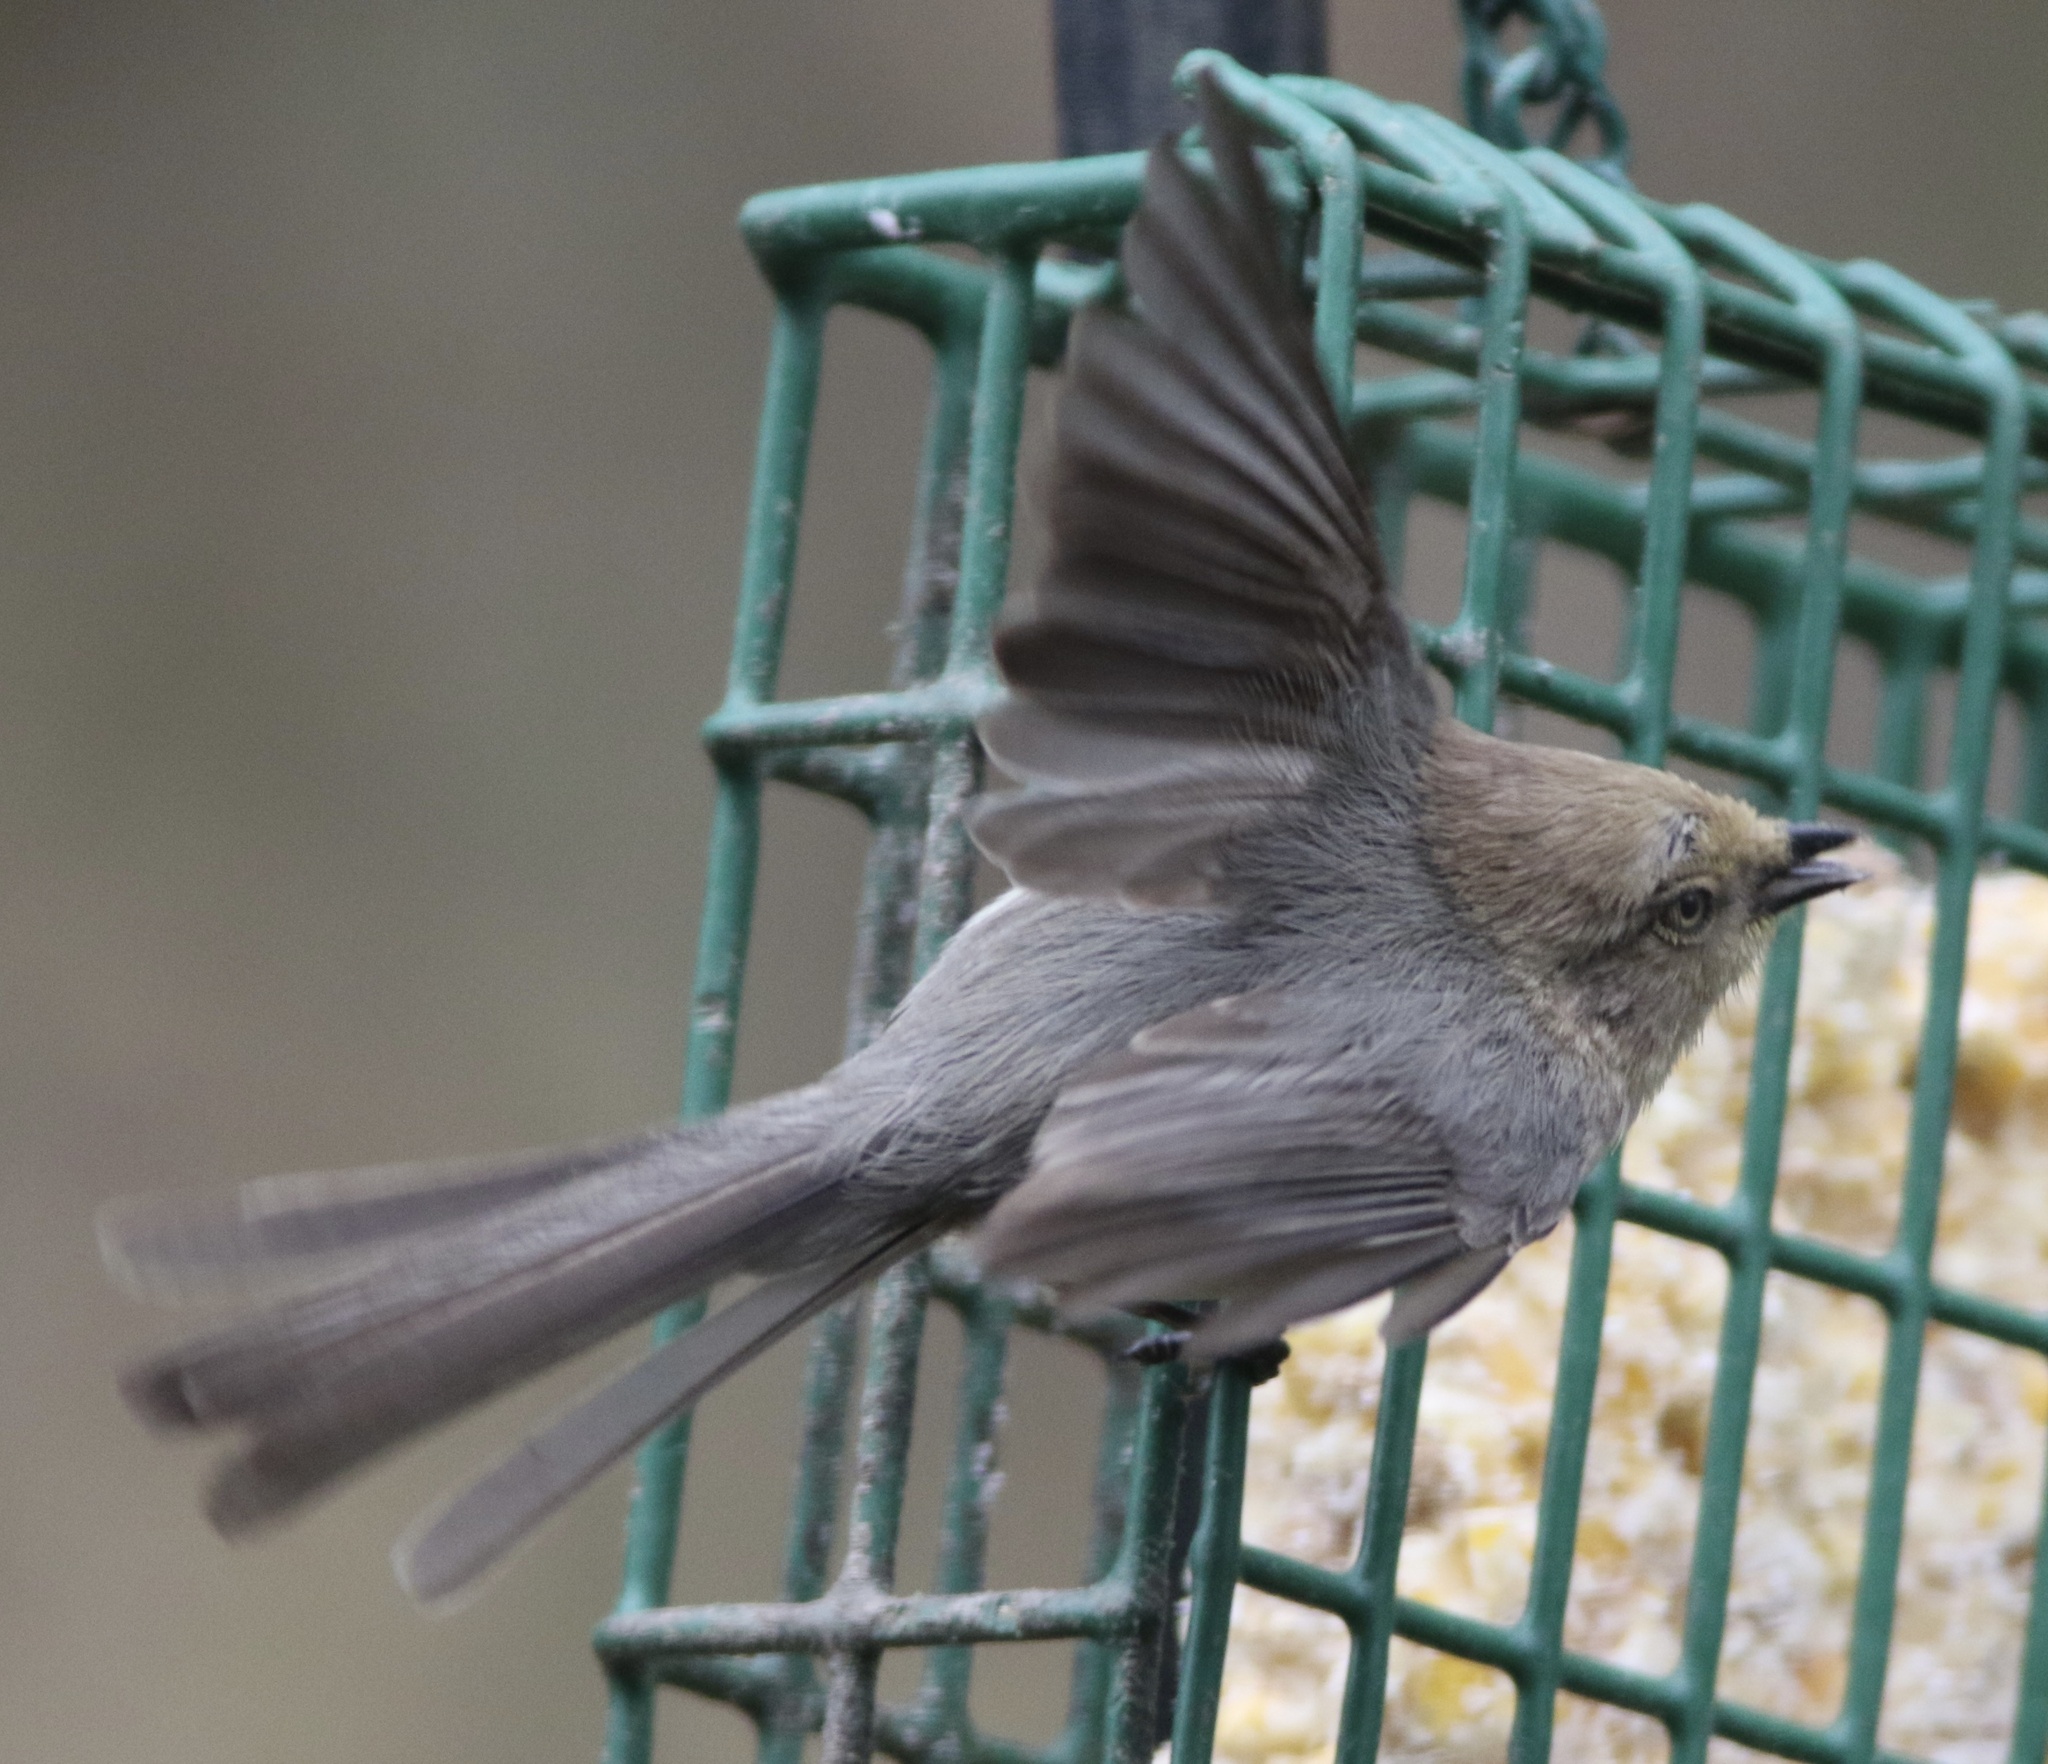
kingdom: Animalia
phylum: Chordata
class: Aves
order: Passeriformes
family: Aegithalidae
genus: Psaltriparus
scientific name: Psaltriparus minimus
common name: American bushtit
